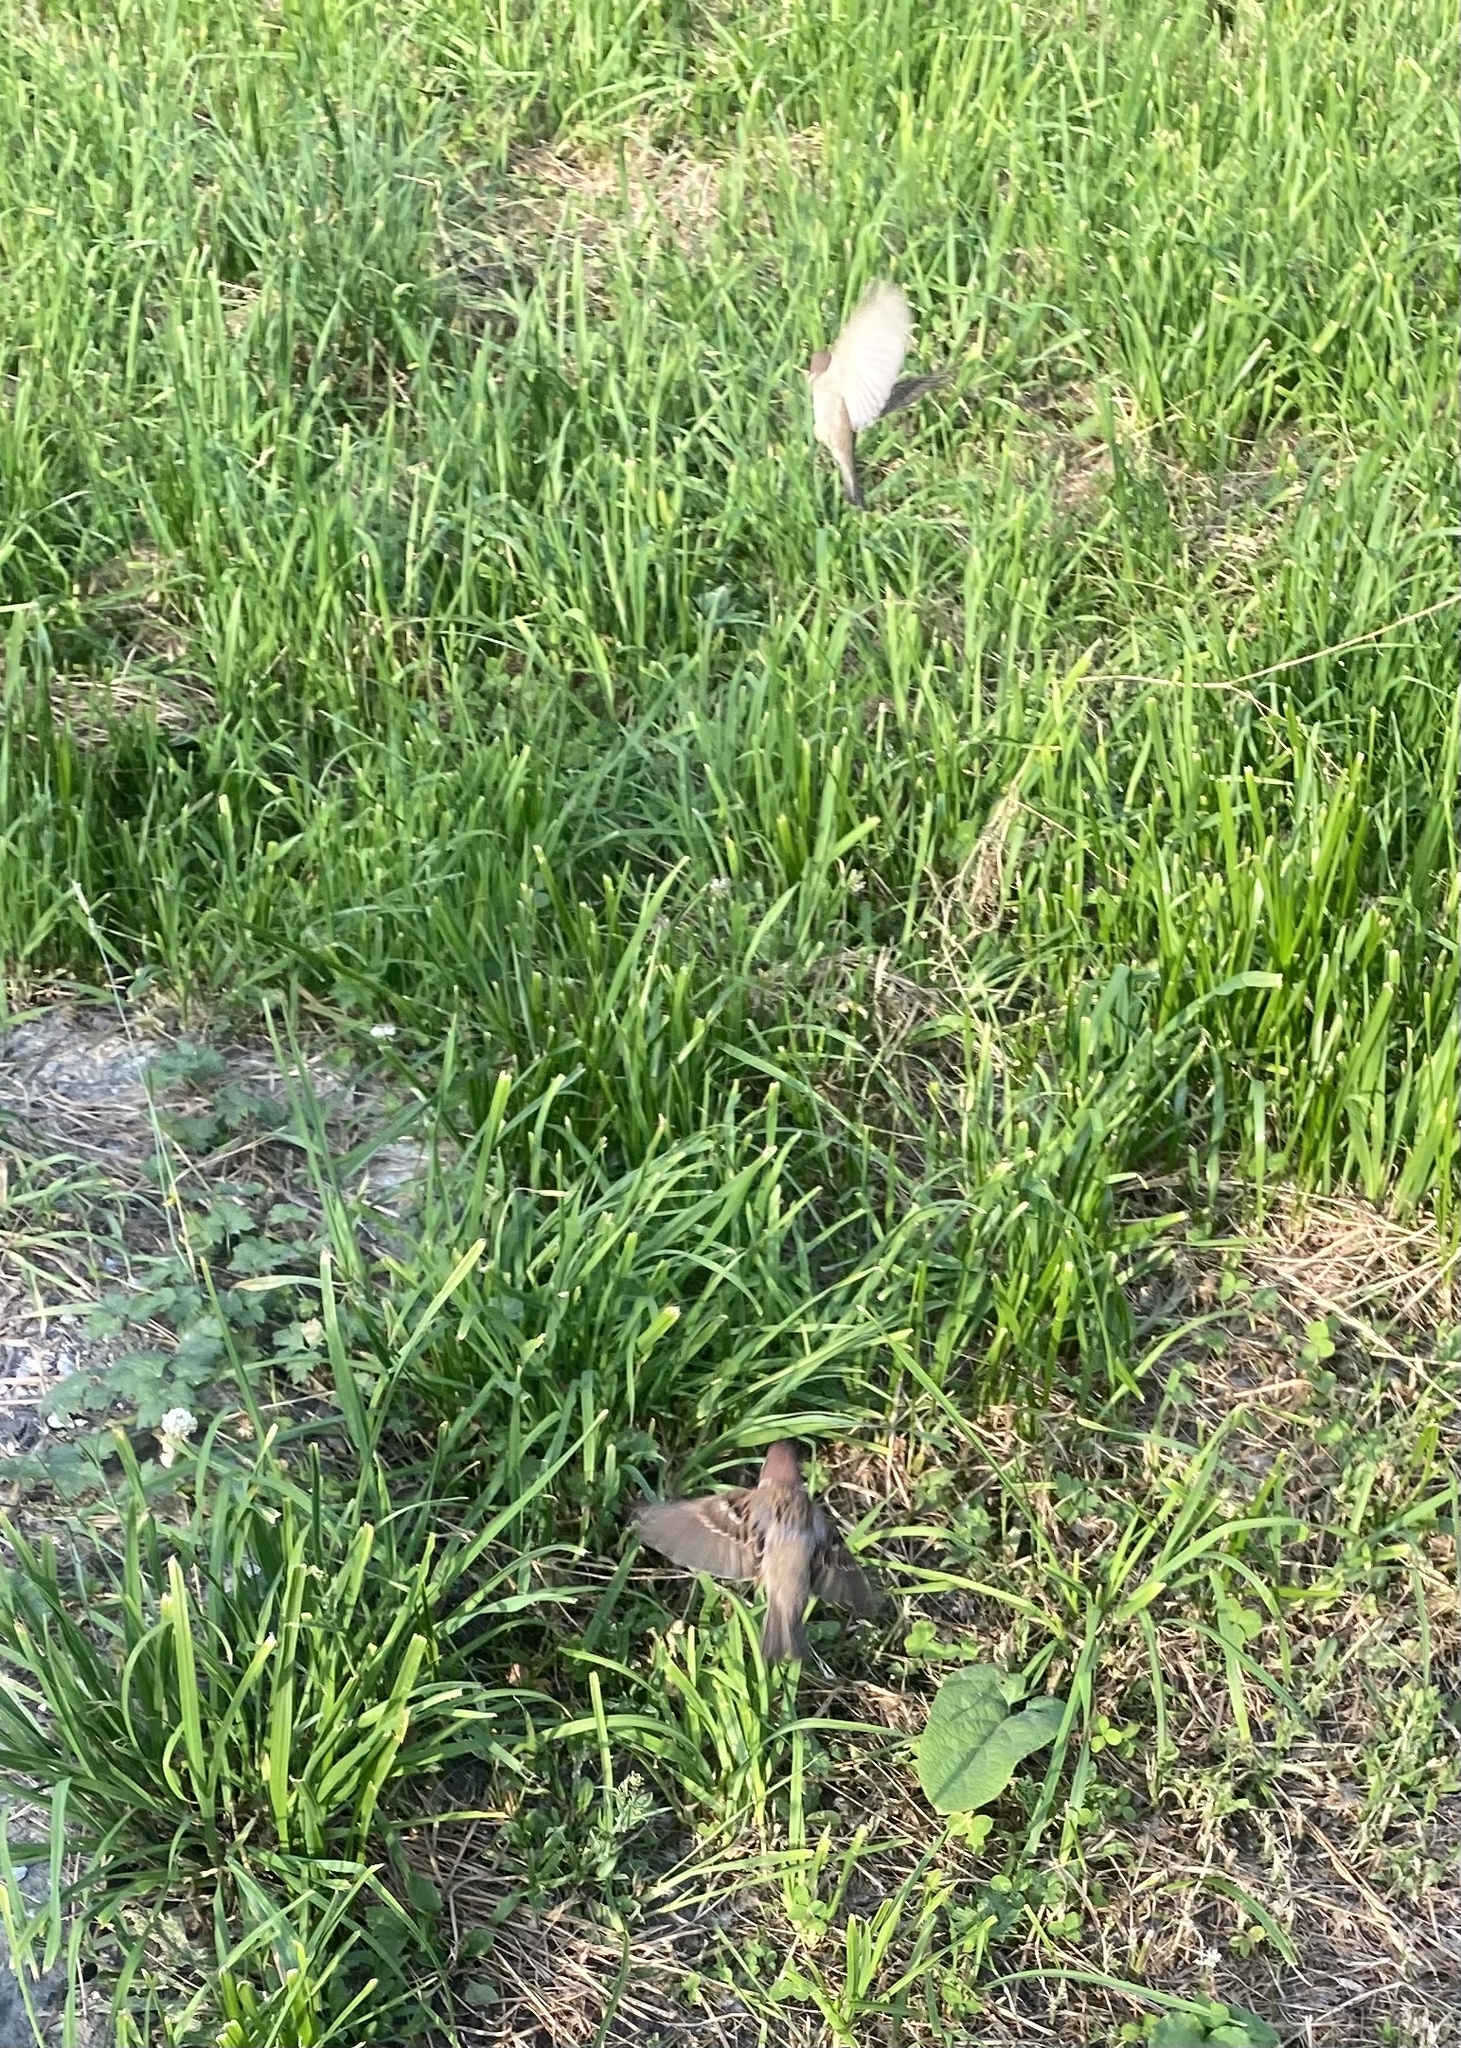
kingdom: Animalia
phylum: Chordata
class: Aves
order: Passeriformes
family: Passeridae
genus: Passer
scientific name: Passer montanus
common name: Eurasian tree sparrow
